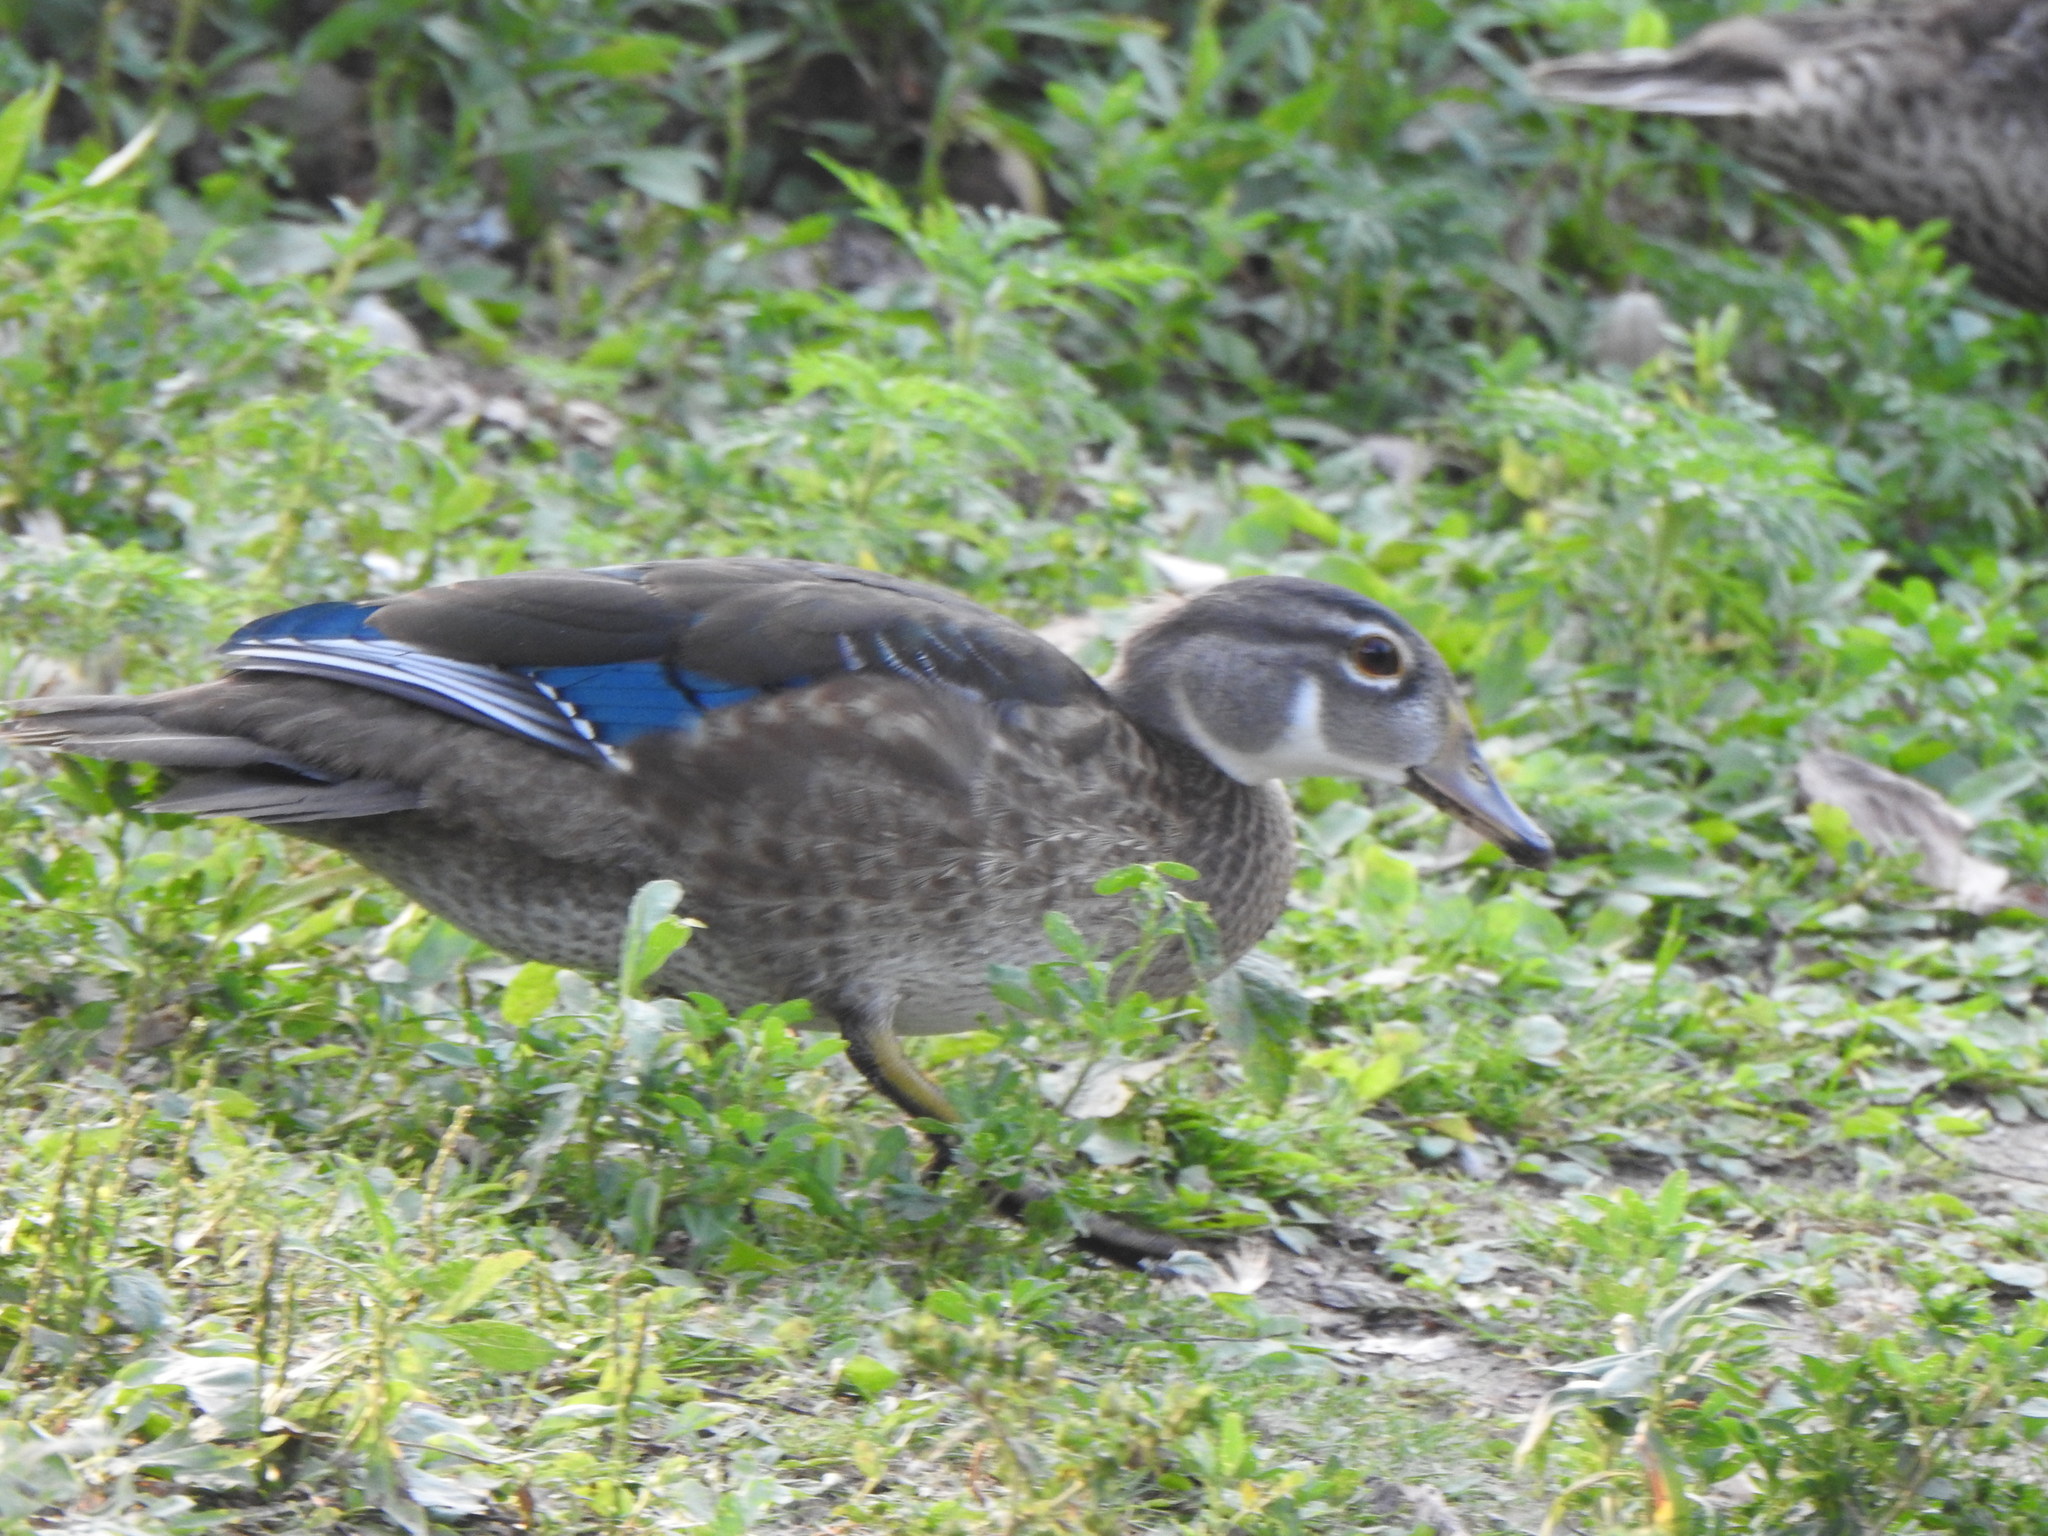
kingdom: Animalia
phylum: Chordata
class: Aves
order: Anseriformes
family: Anatidae
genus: Aix
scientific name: Aix sponsa
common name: Wood duck
